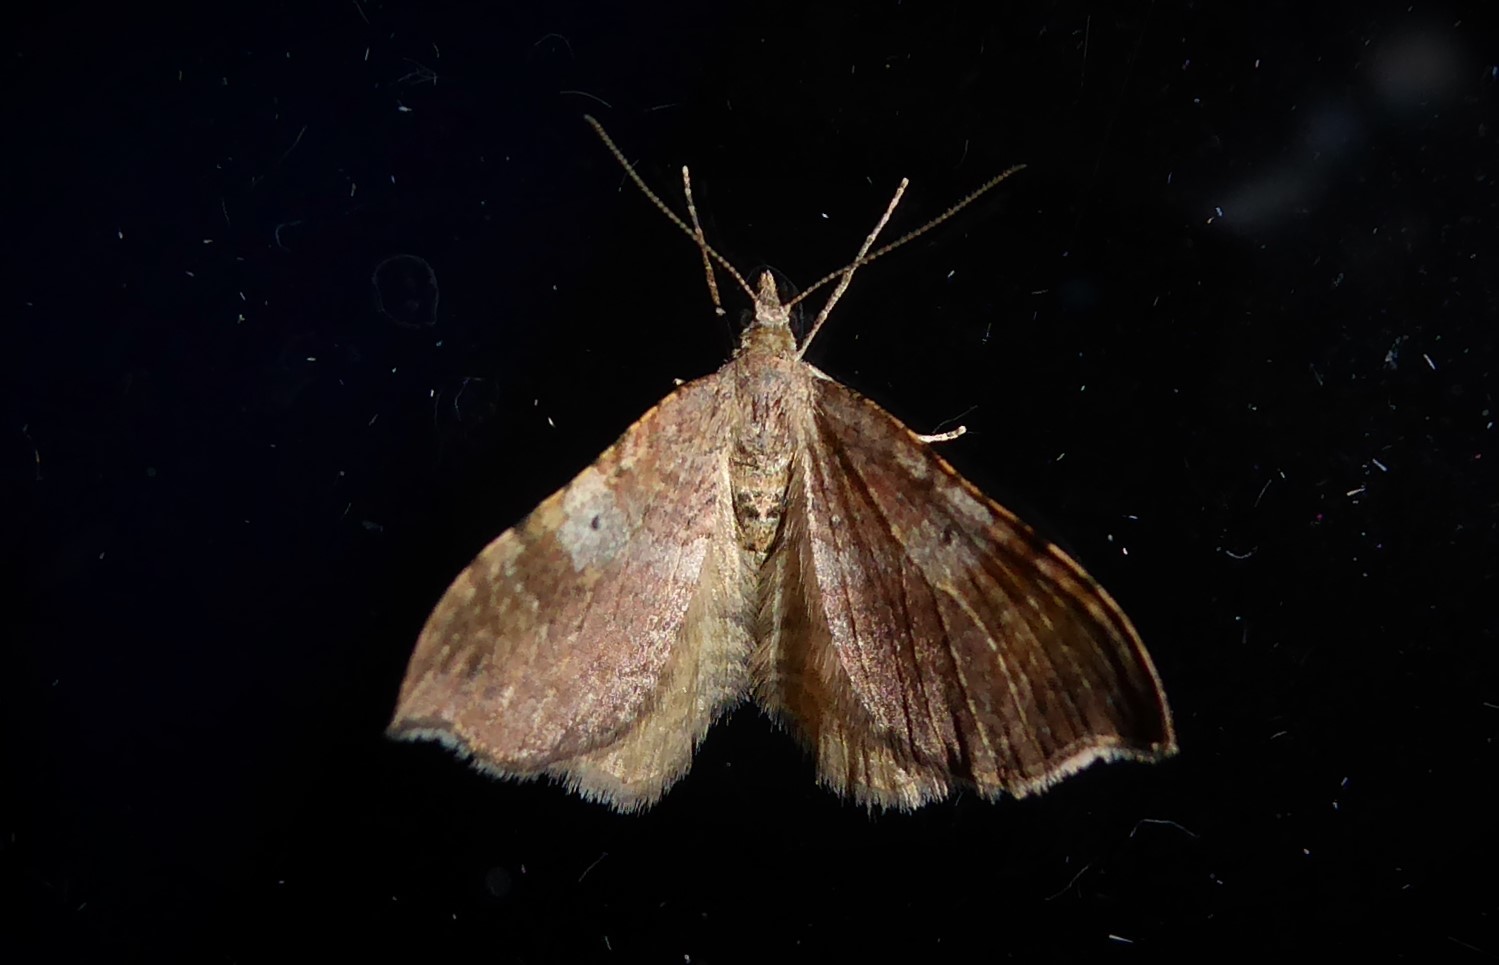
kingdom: Animalia
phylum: Arthropoda
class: Insecta
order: Lepidoptera
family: Geometridae
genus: Homodotis
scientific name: Homodotis megaspilata
